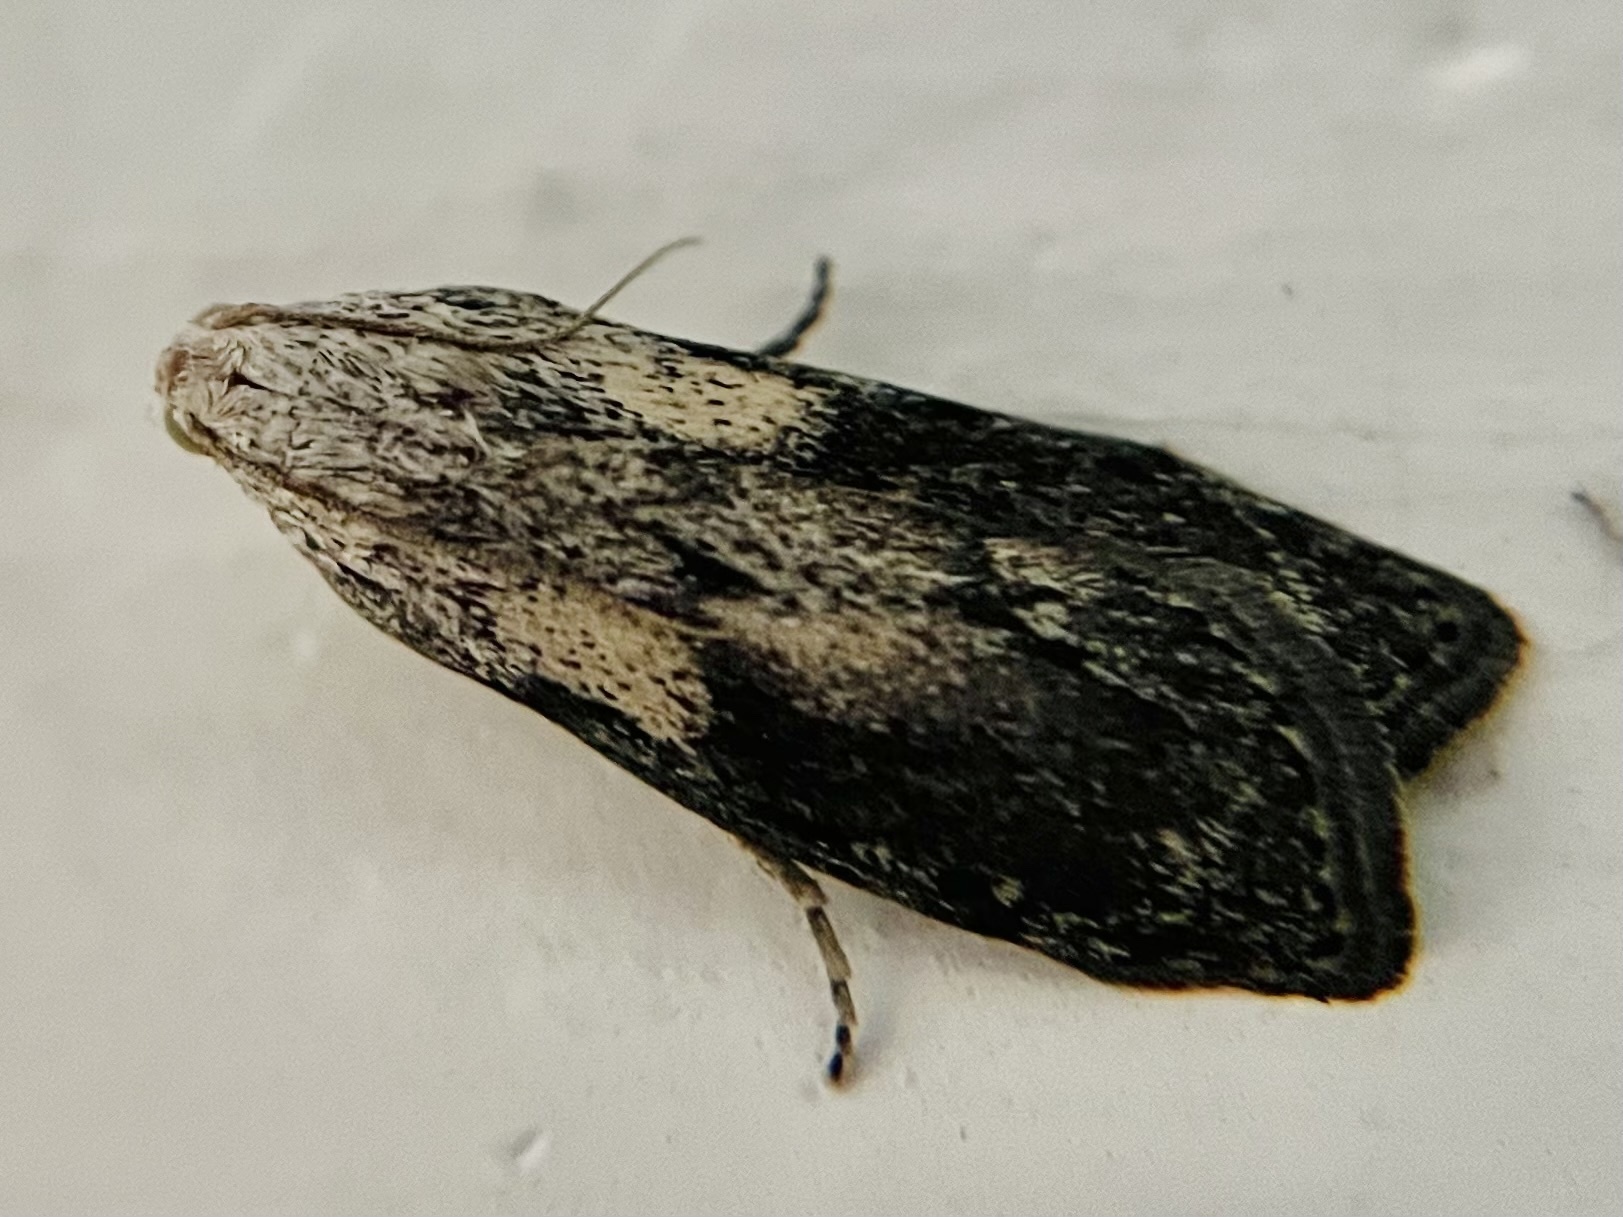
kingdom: Animalia
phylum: Arthropoda
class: Insecta
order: Lepidoptera
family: Pyralidae
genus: Aphomia
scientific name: Aphomia sociella
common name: Bee moth
